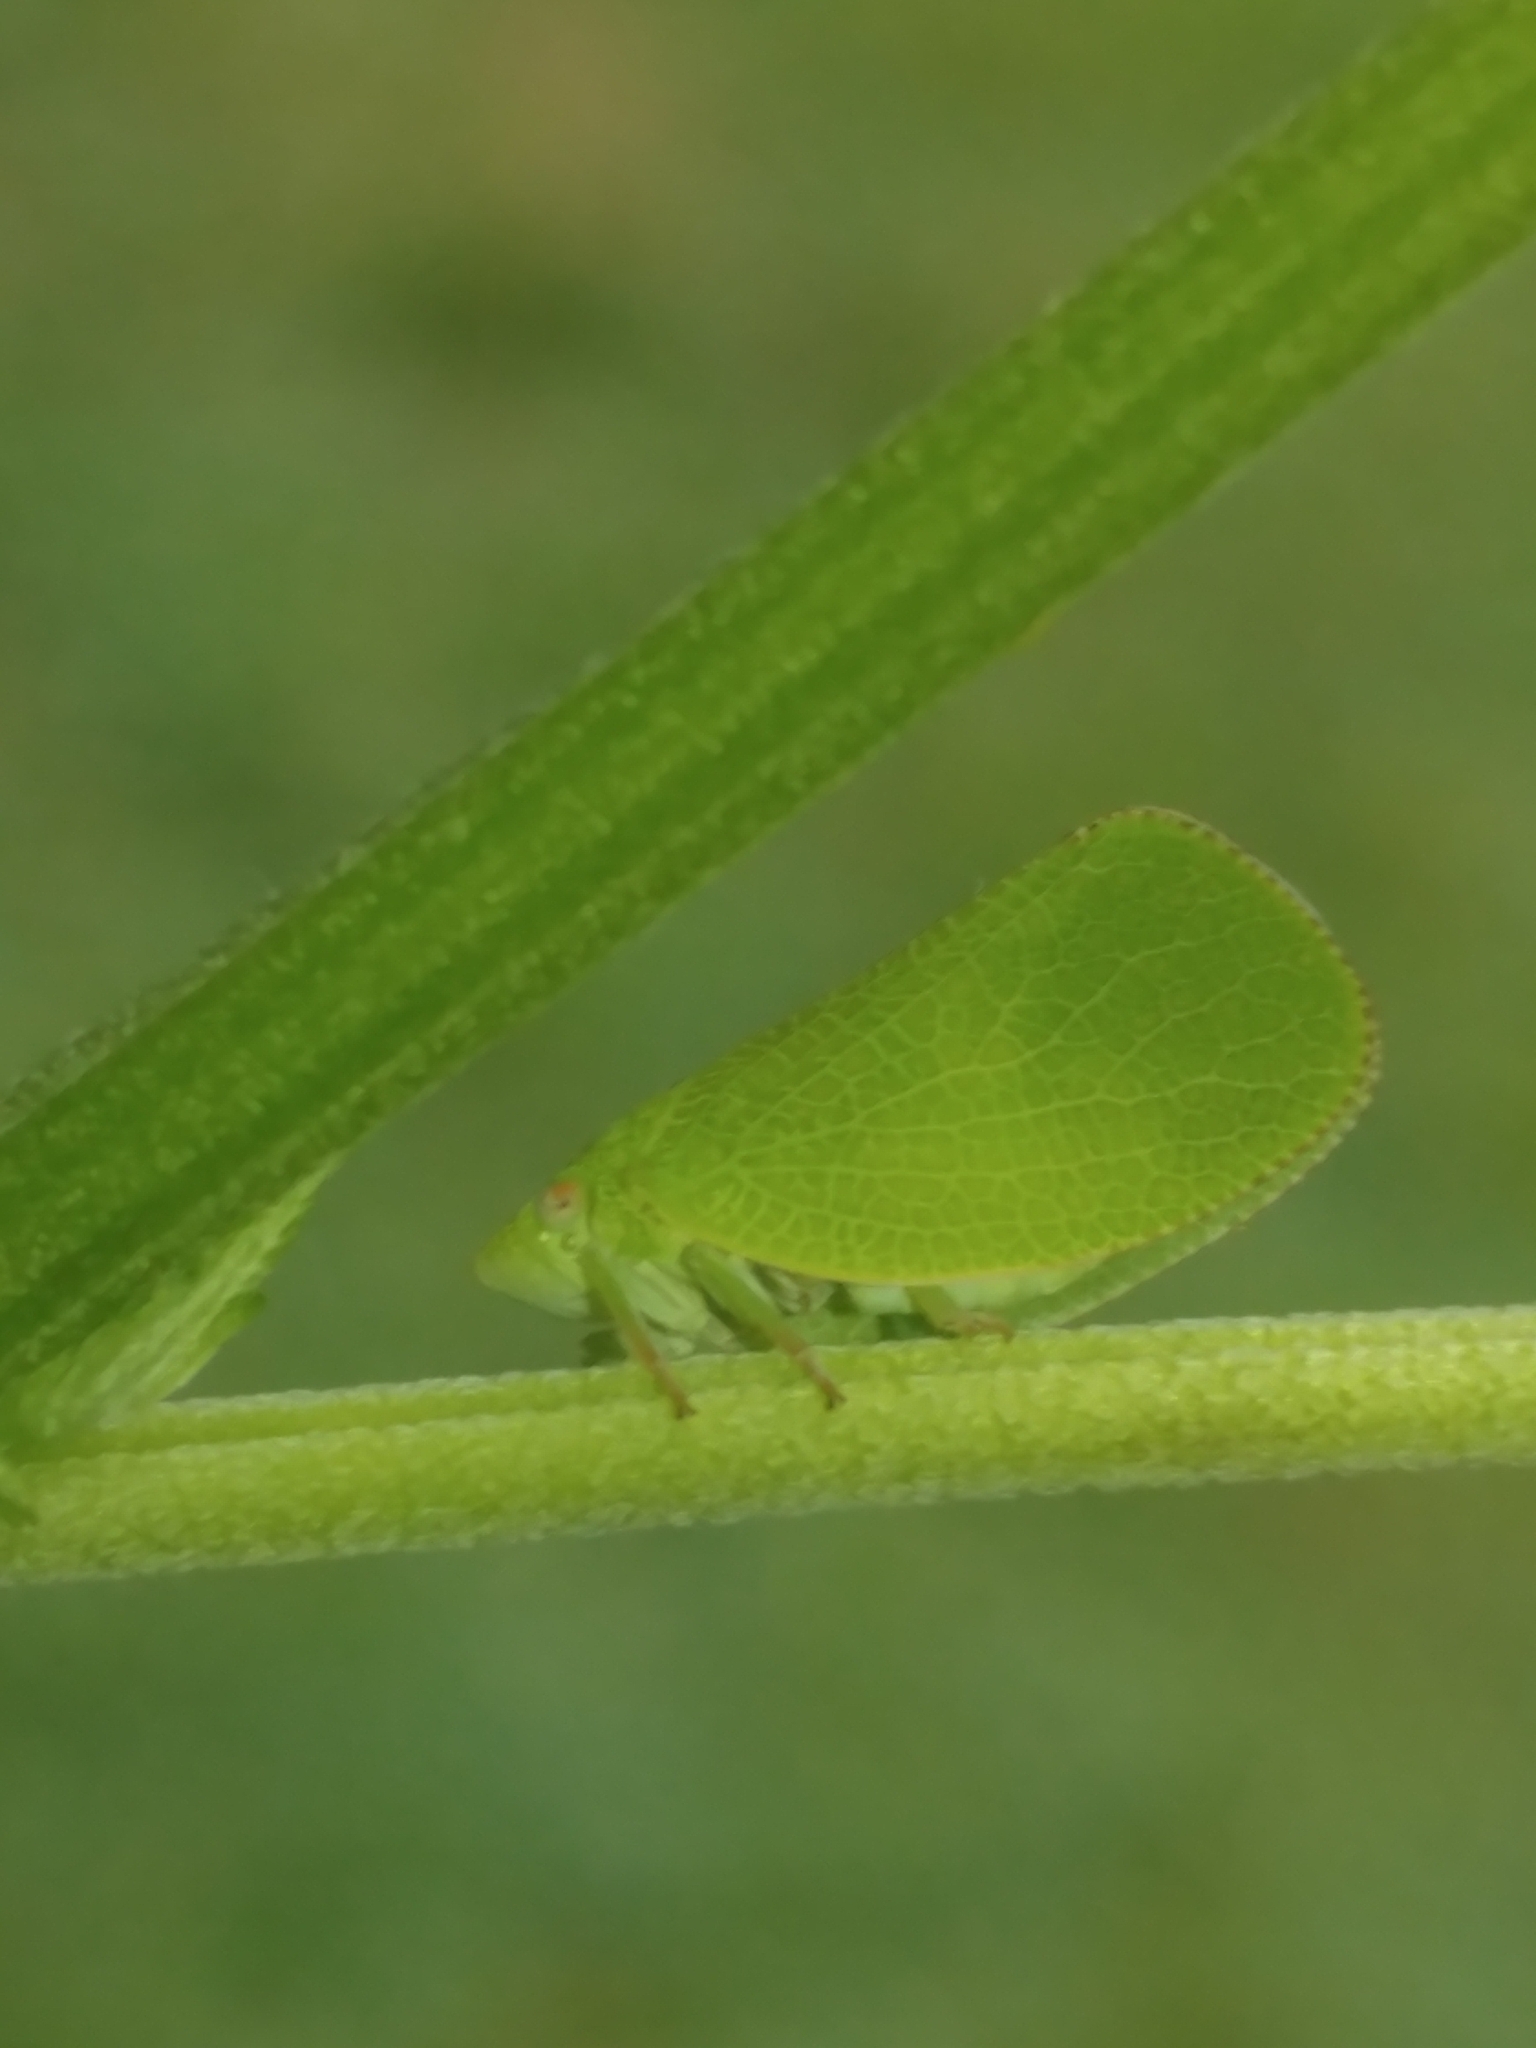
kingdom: Animalia
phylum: Arthropoda
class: Insecta
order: Hemiptera
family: Acanaloniidae
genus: Acanalonia
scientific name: Acanalonia conica
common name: Green cone-headed planthopper
